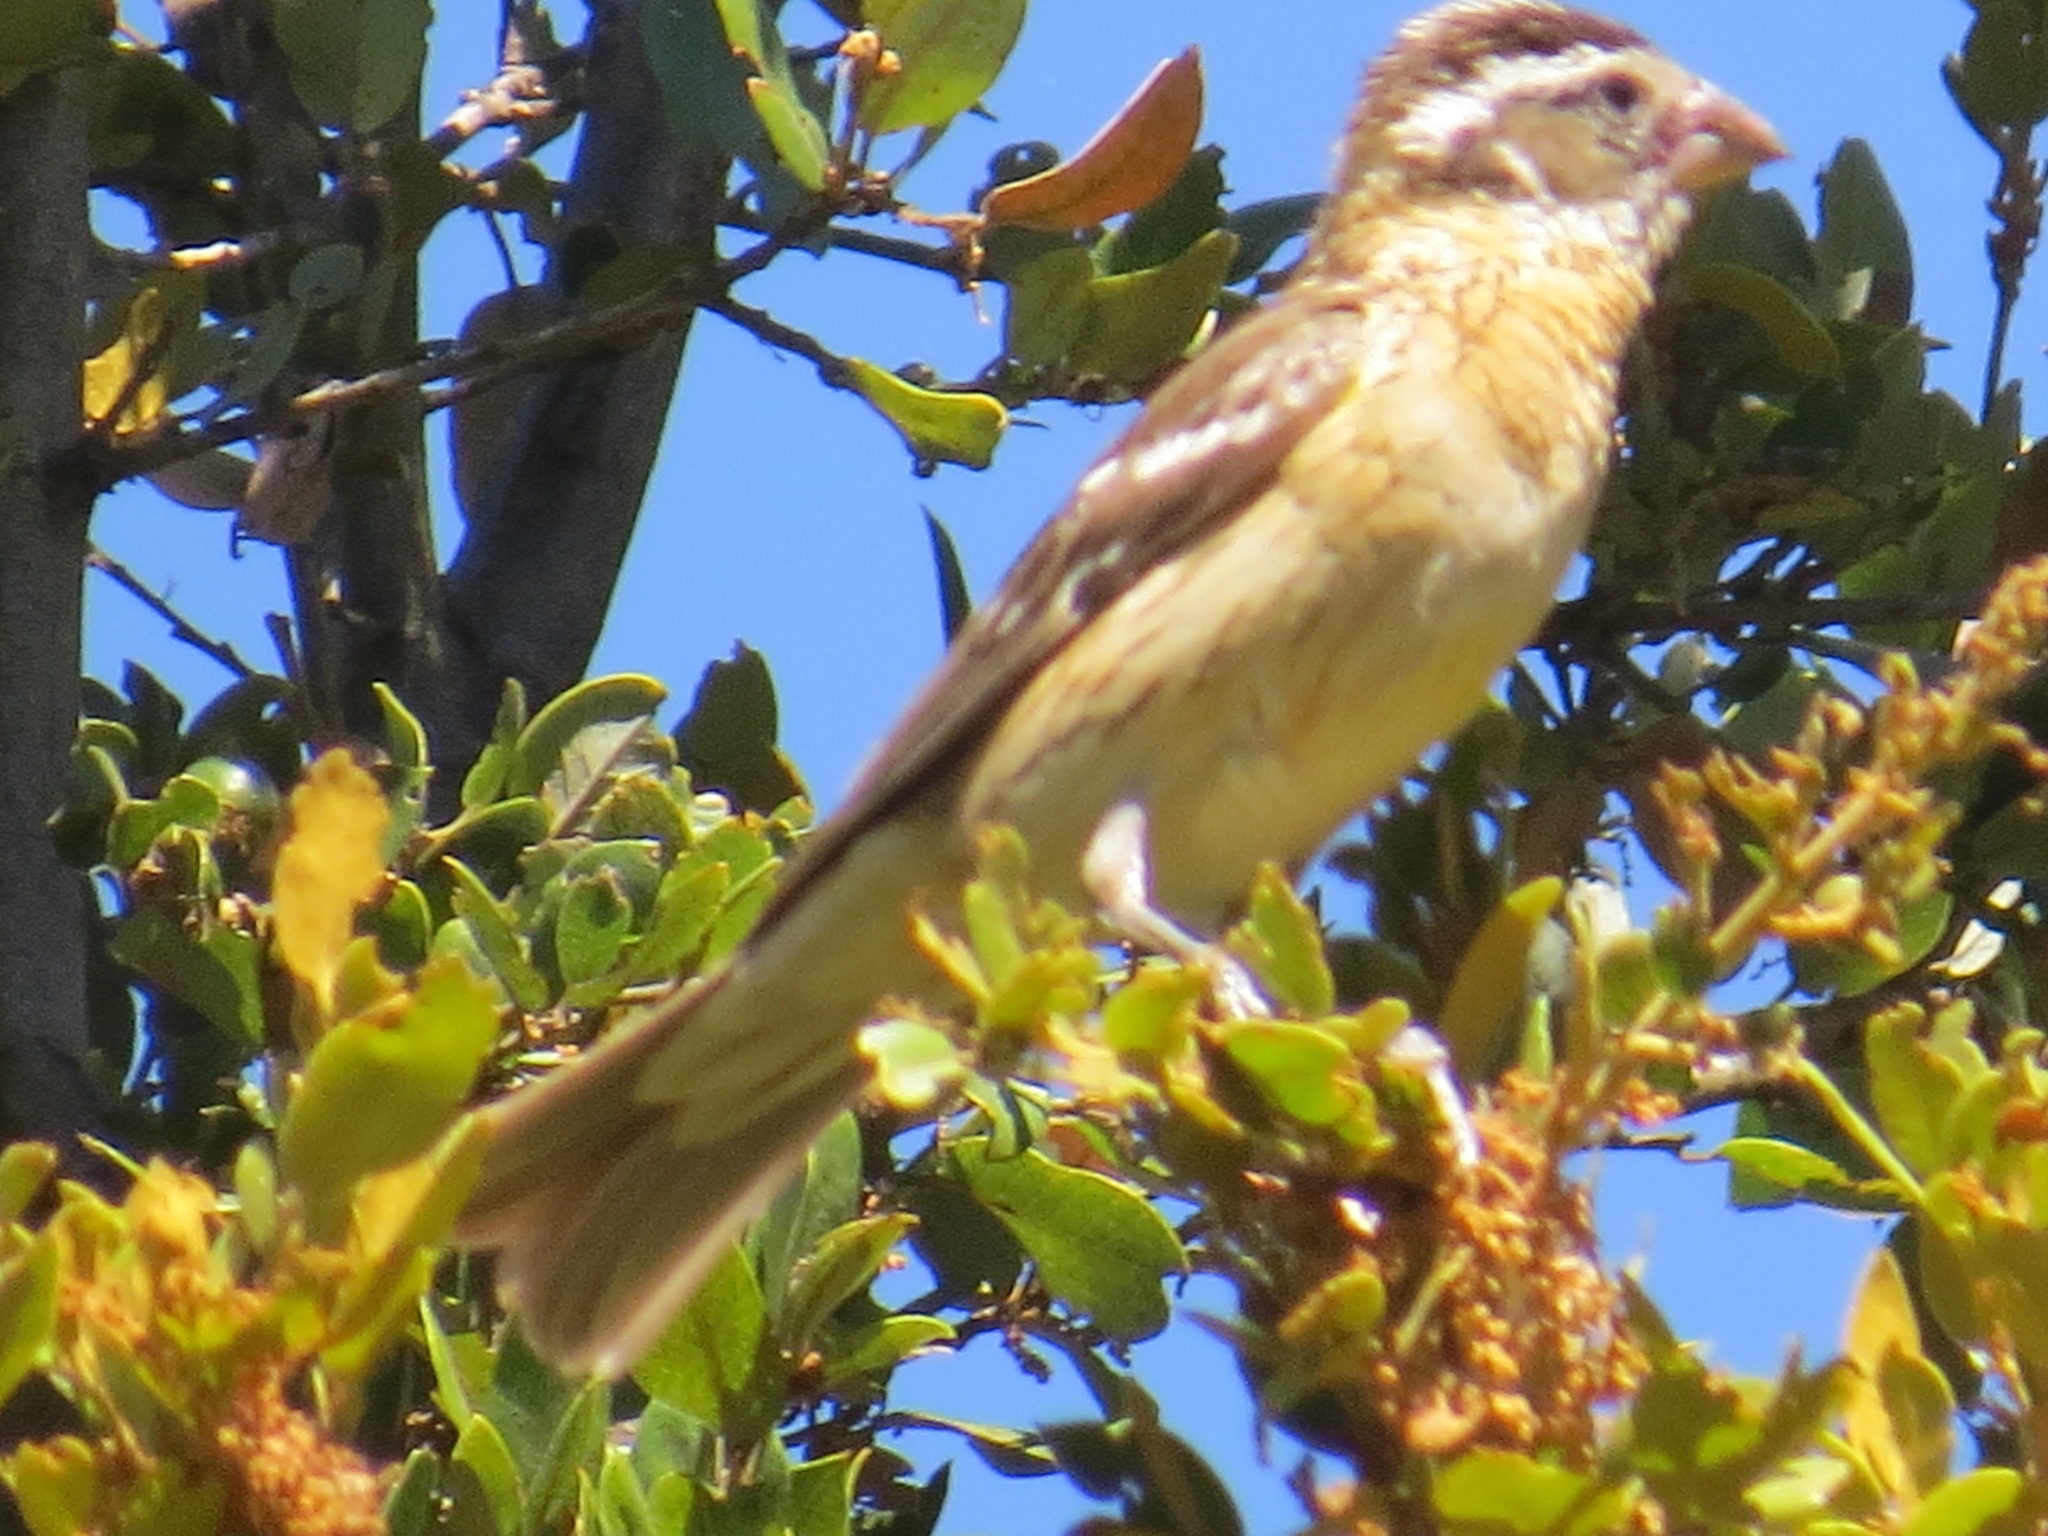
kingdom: Animalia
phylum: Chordata
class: Aves
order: Passeriformes
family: Cardinalidae
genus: Pheucticus
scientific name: Pheucticus melanocephalus
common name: Black-headed grosbeak
